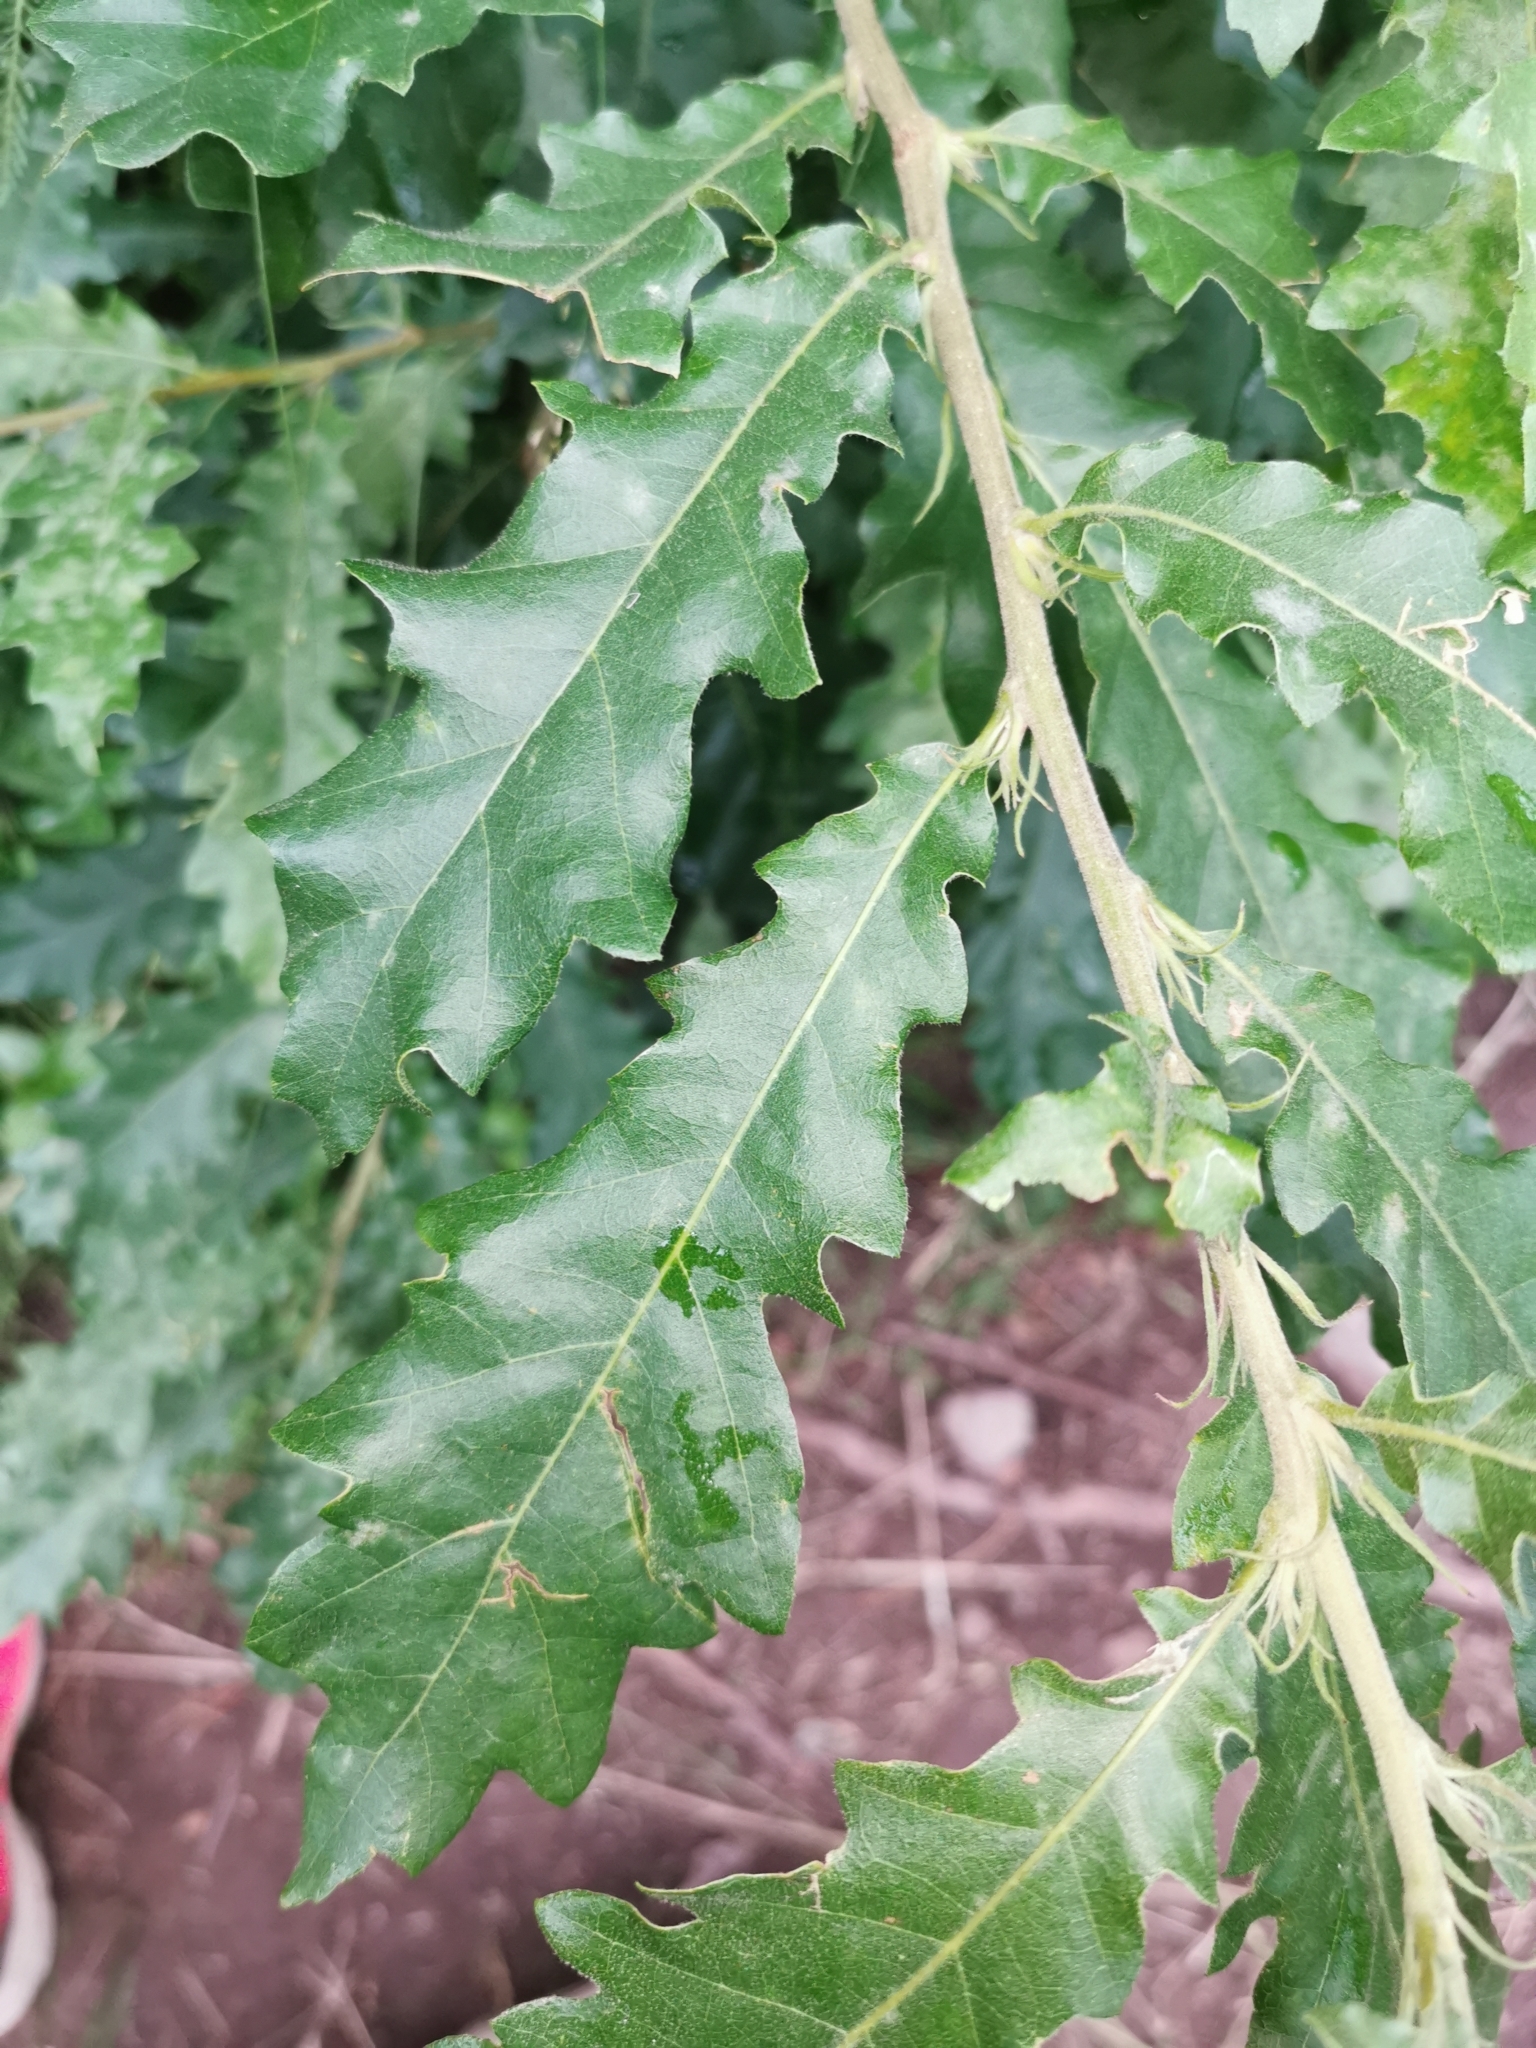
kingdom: Plantae
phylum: Tracheophyta
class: Magnoliopsida
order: Fagales
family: Fagaceae
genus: Quercus
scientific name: Quercus cerris
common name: Turkey oak
